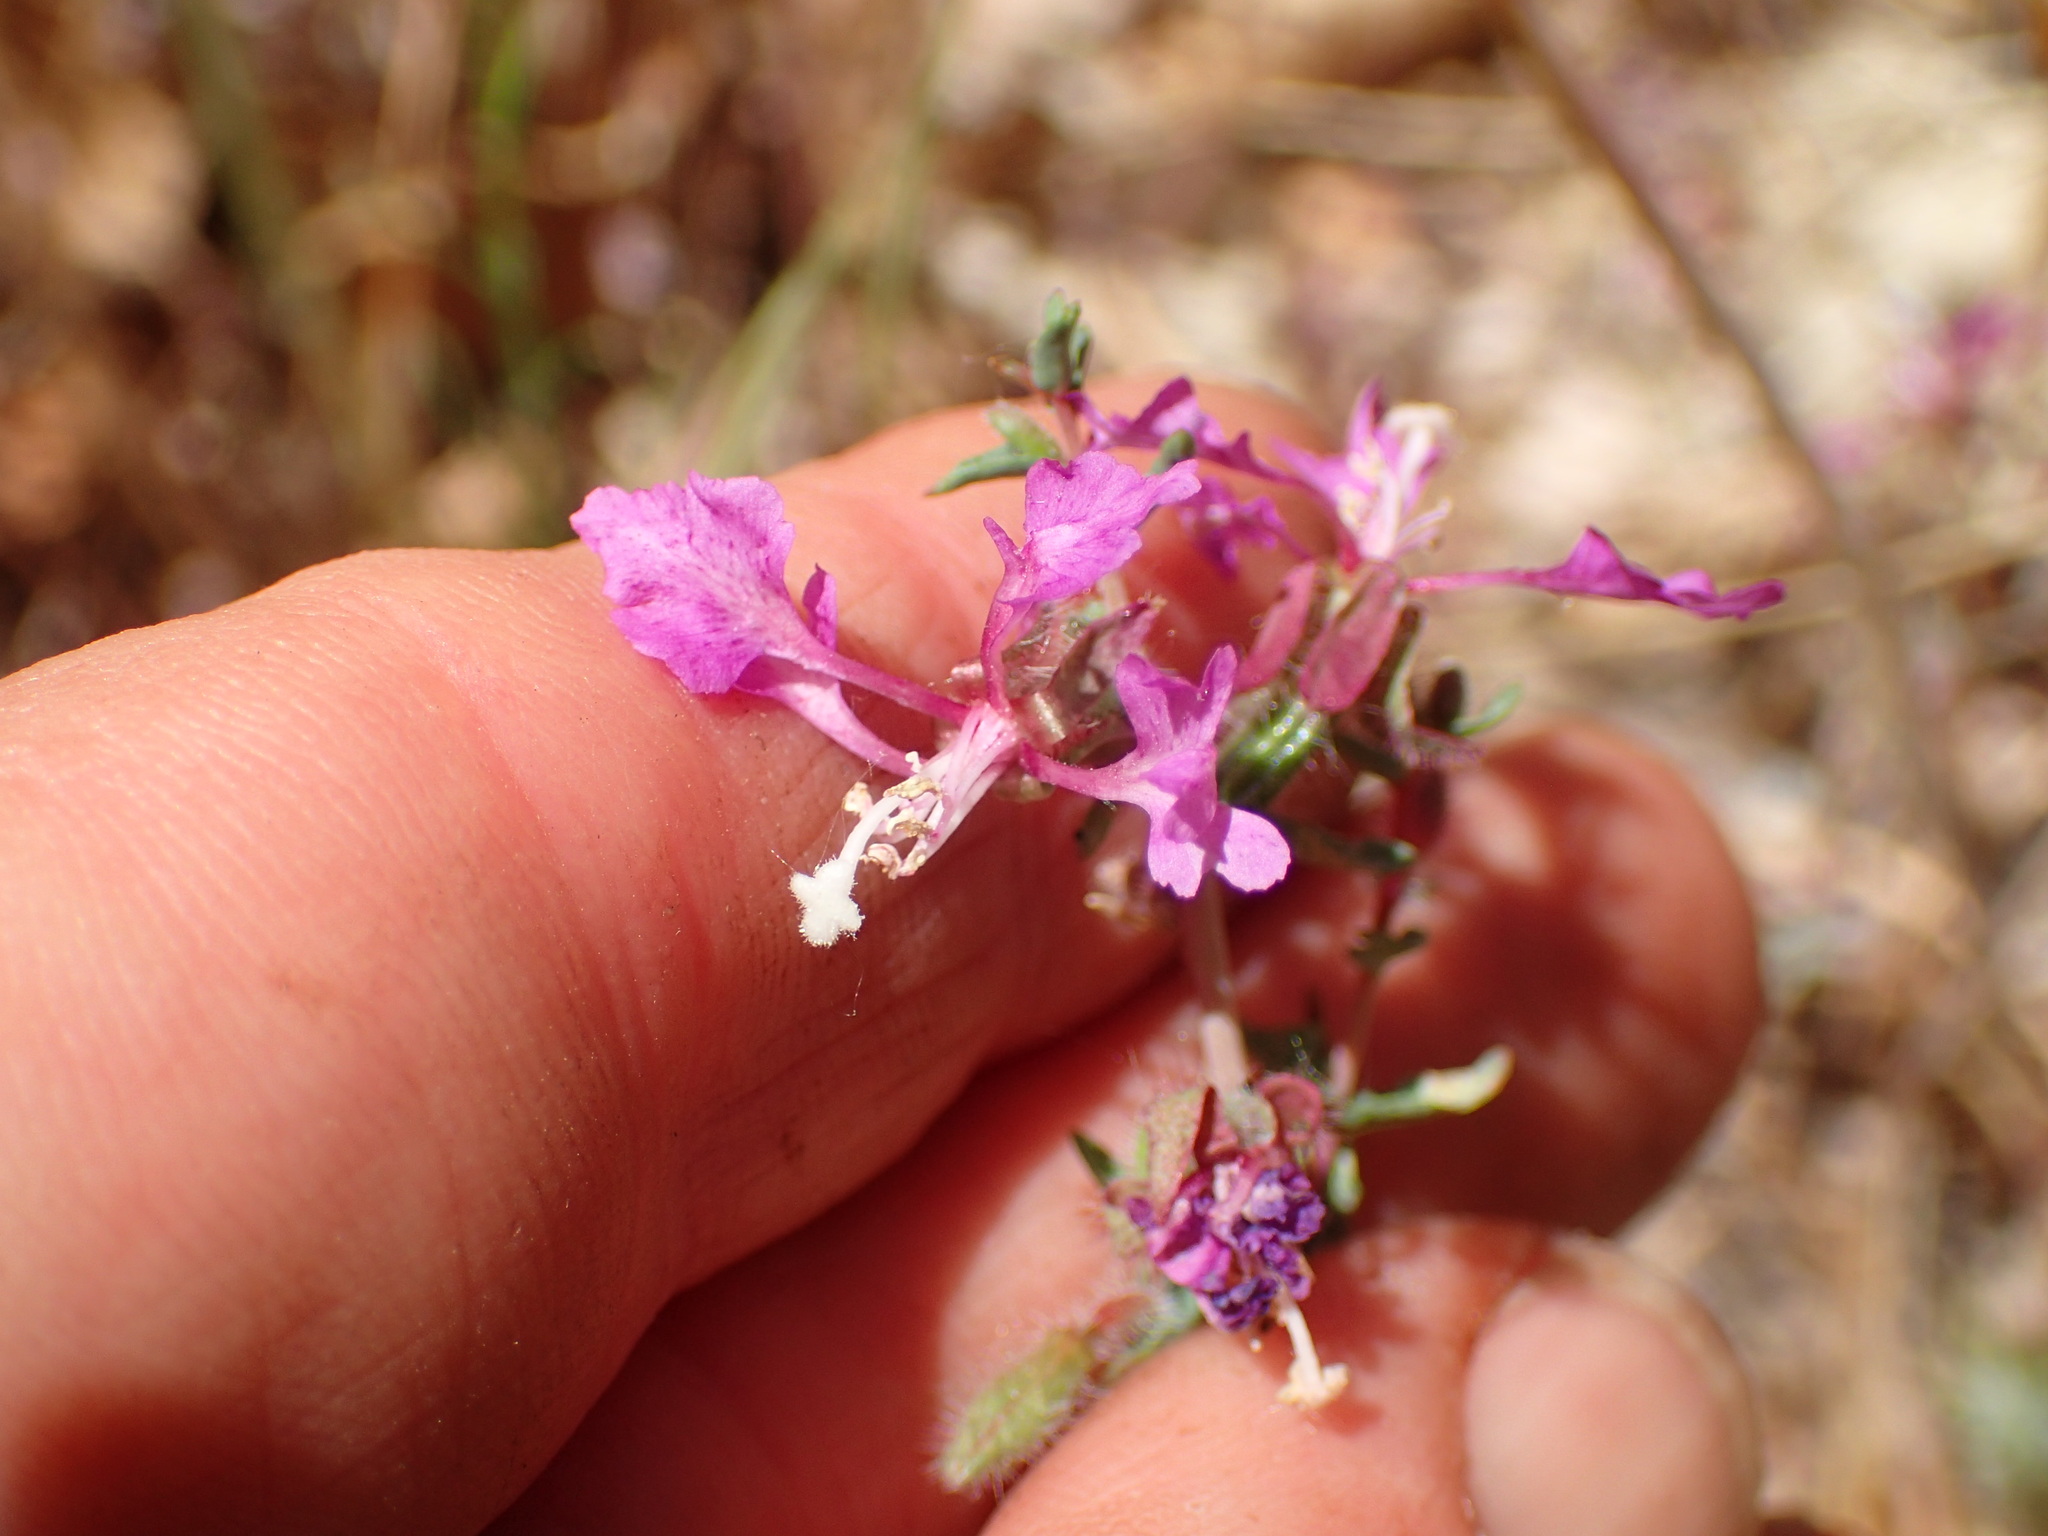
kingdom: Plantae
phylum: Tracheophyta
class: Magnoliopsida
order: Myrtales
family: Onagraceae
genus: Clarkia
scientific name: Clarkia unguiculata
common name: Clarkia
